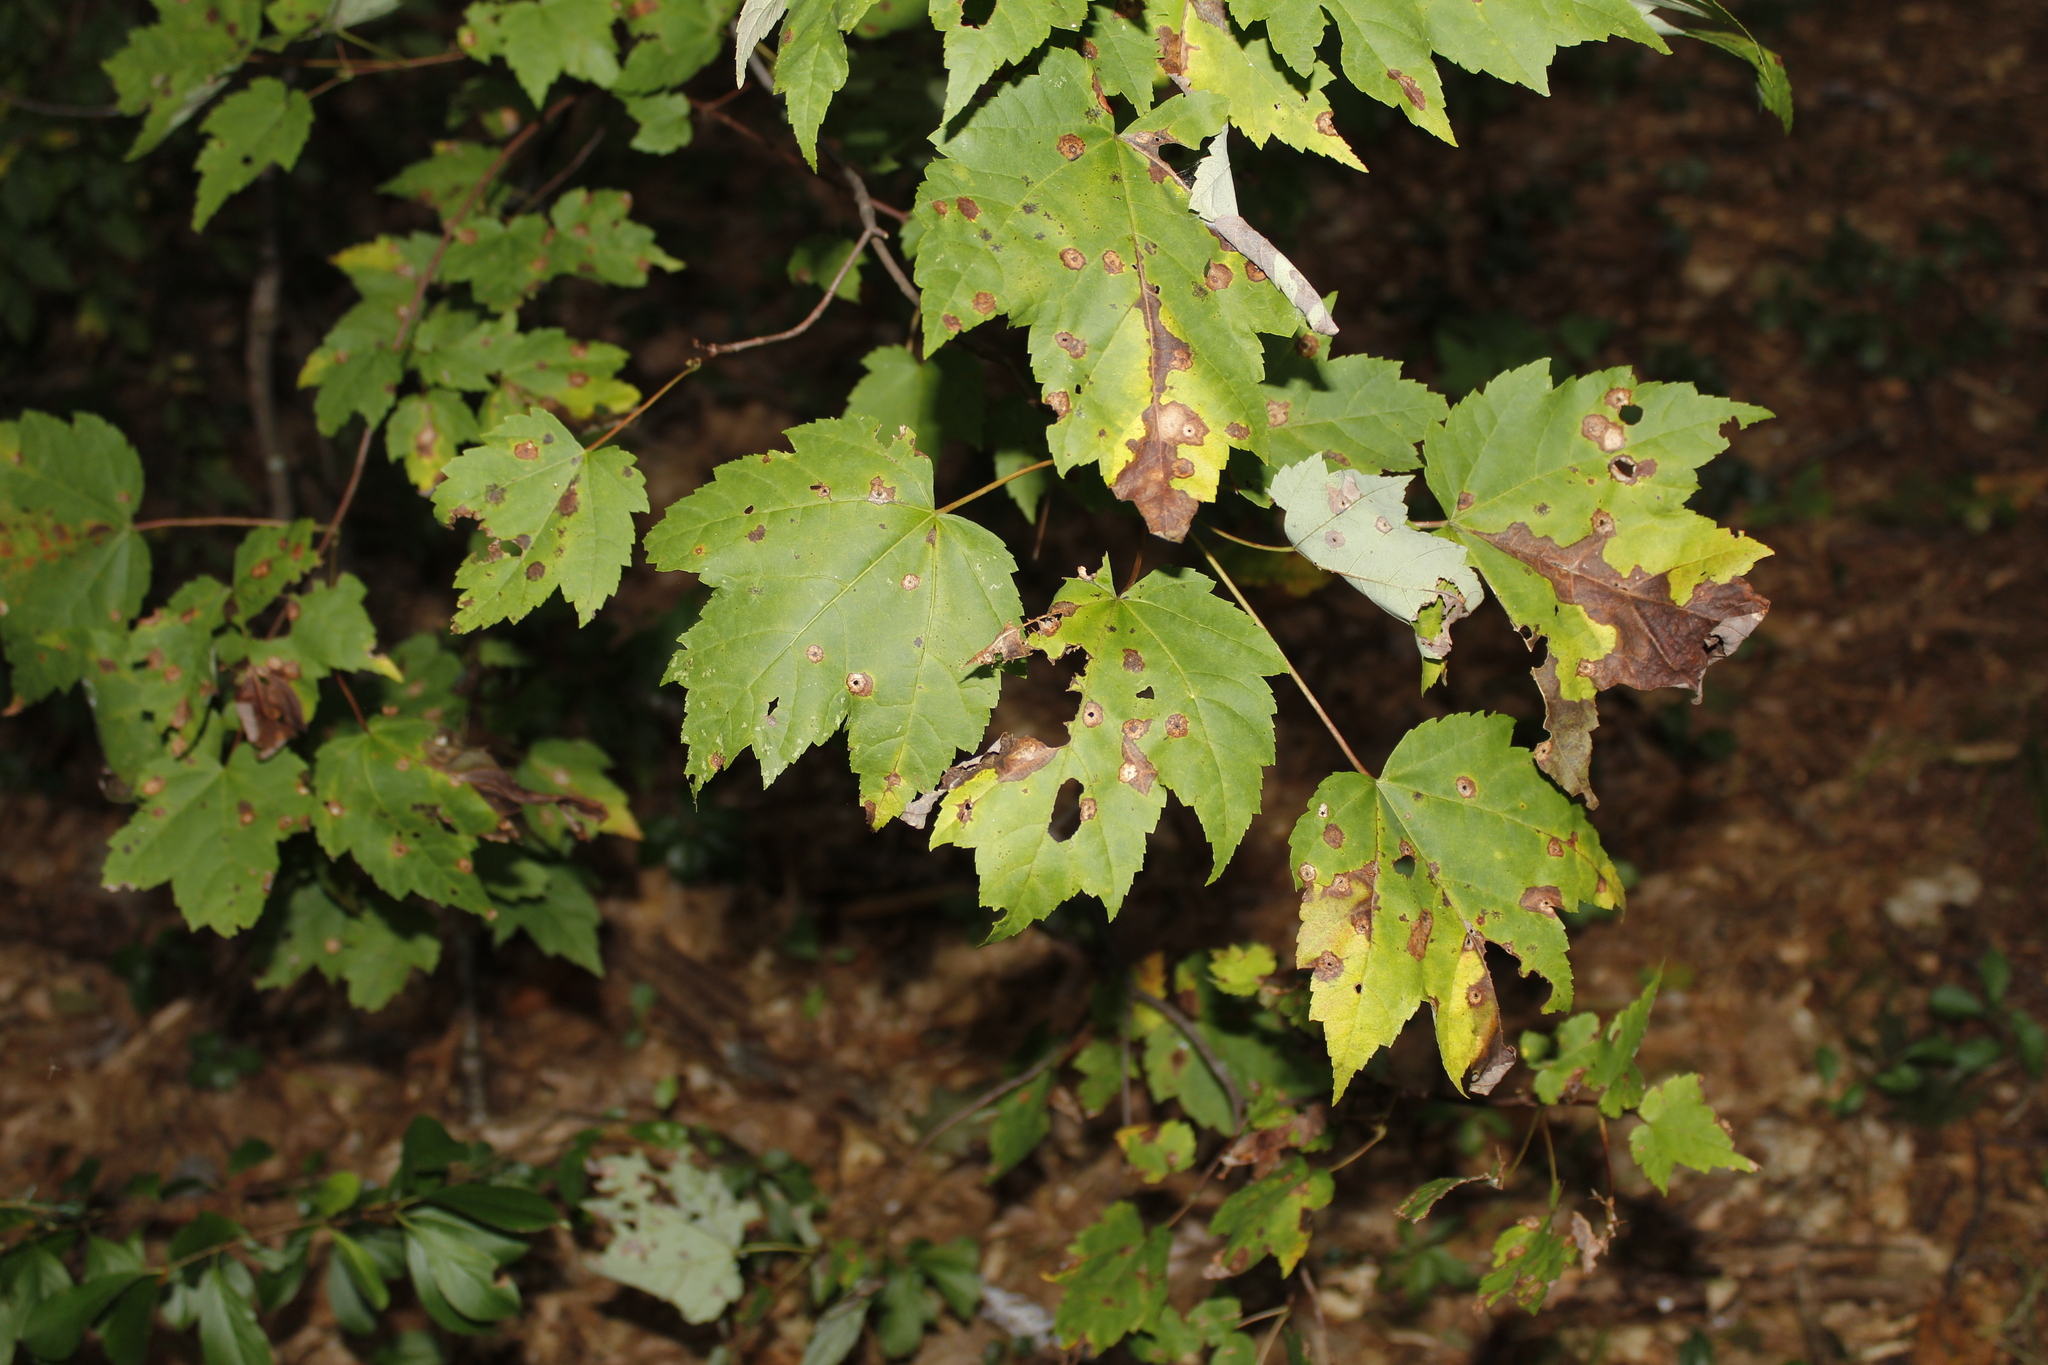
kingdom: Plantae
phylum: Tracheophyta
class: Magnoliopsida
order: Sapindales
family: Sapindaceae
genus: Acer
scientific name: Acer rubrum
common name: Red maple
